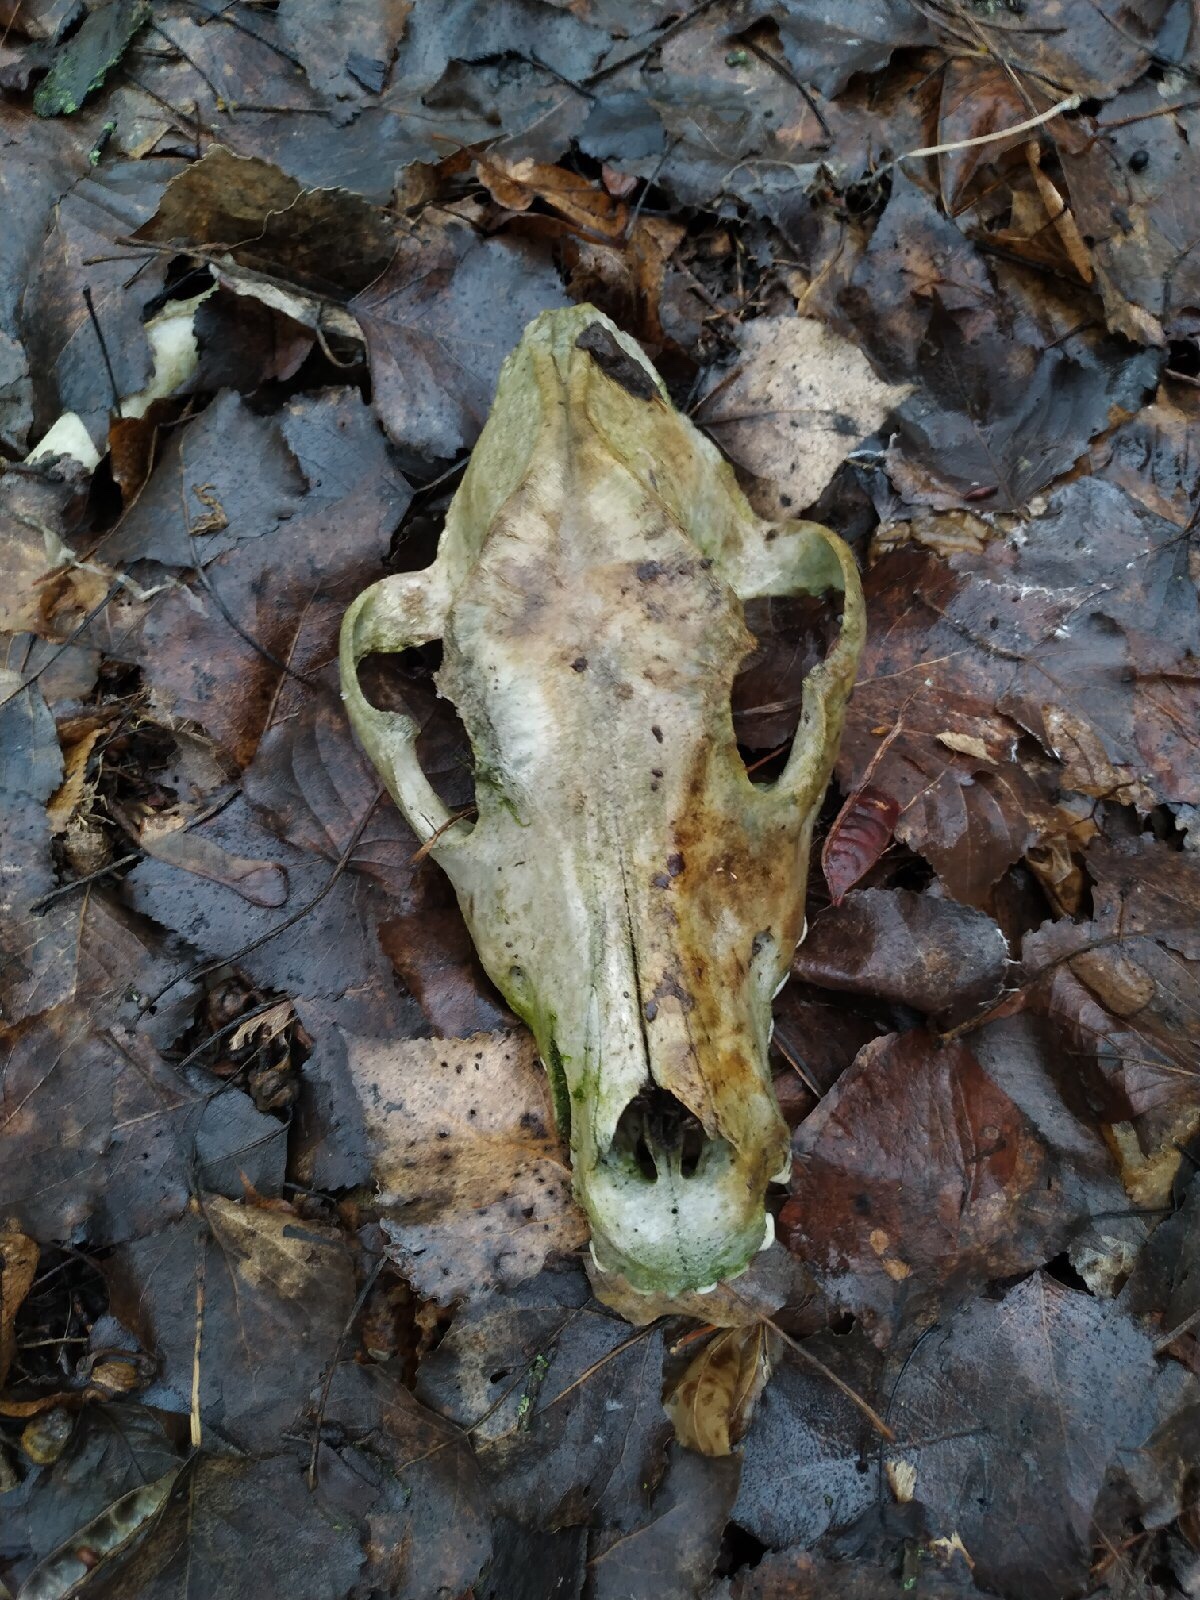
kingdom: Animalia
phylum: Chordata
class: Mammalia
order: Carnivora
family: Canidae
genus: Canis
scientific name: Canis lupus
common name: Gray wolf
